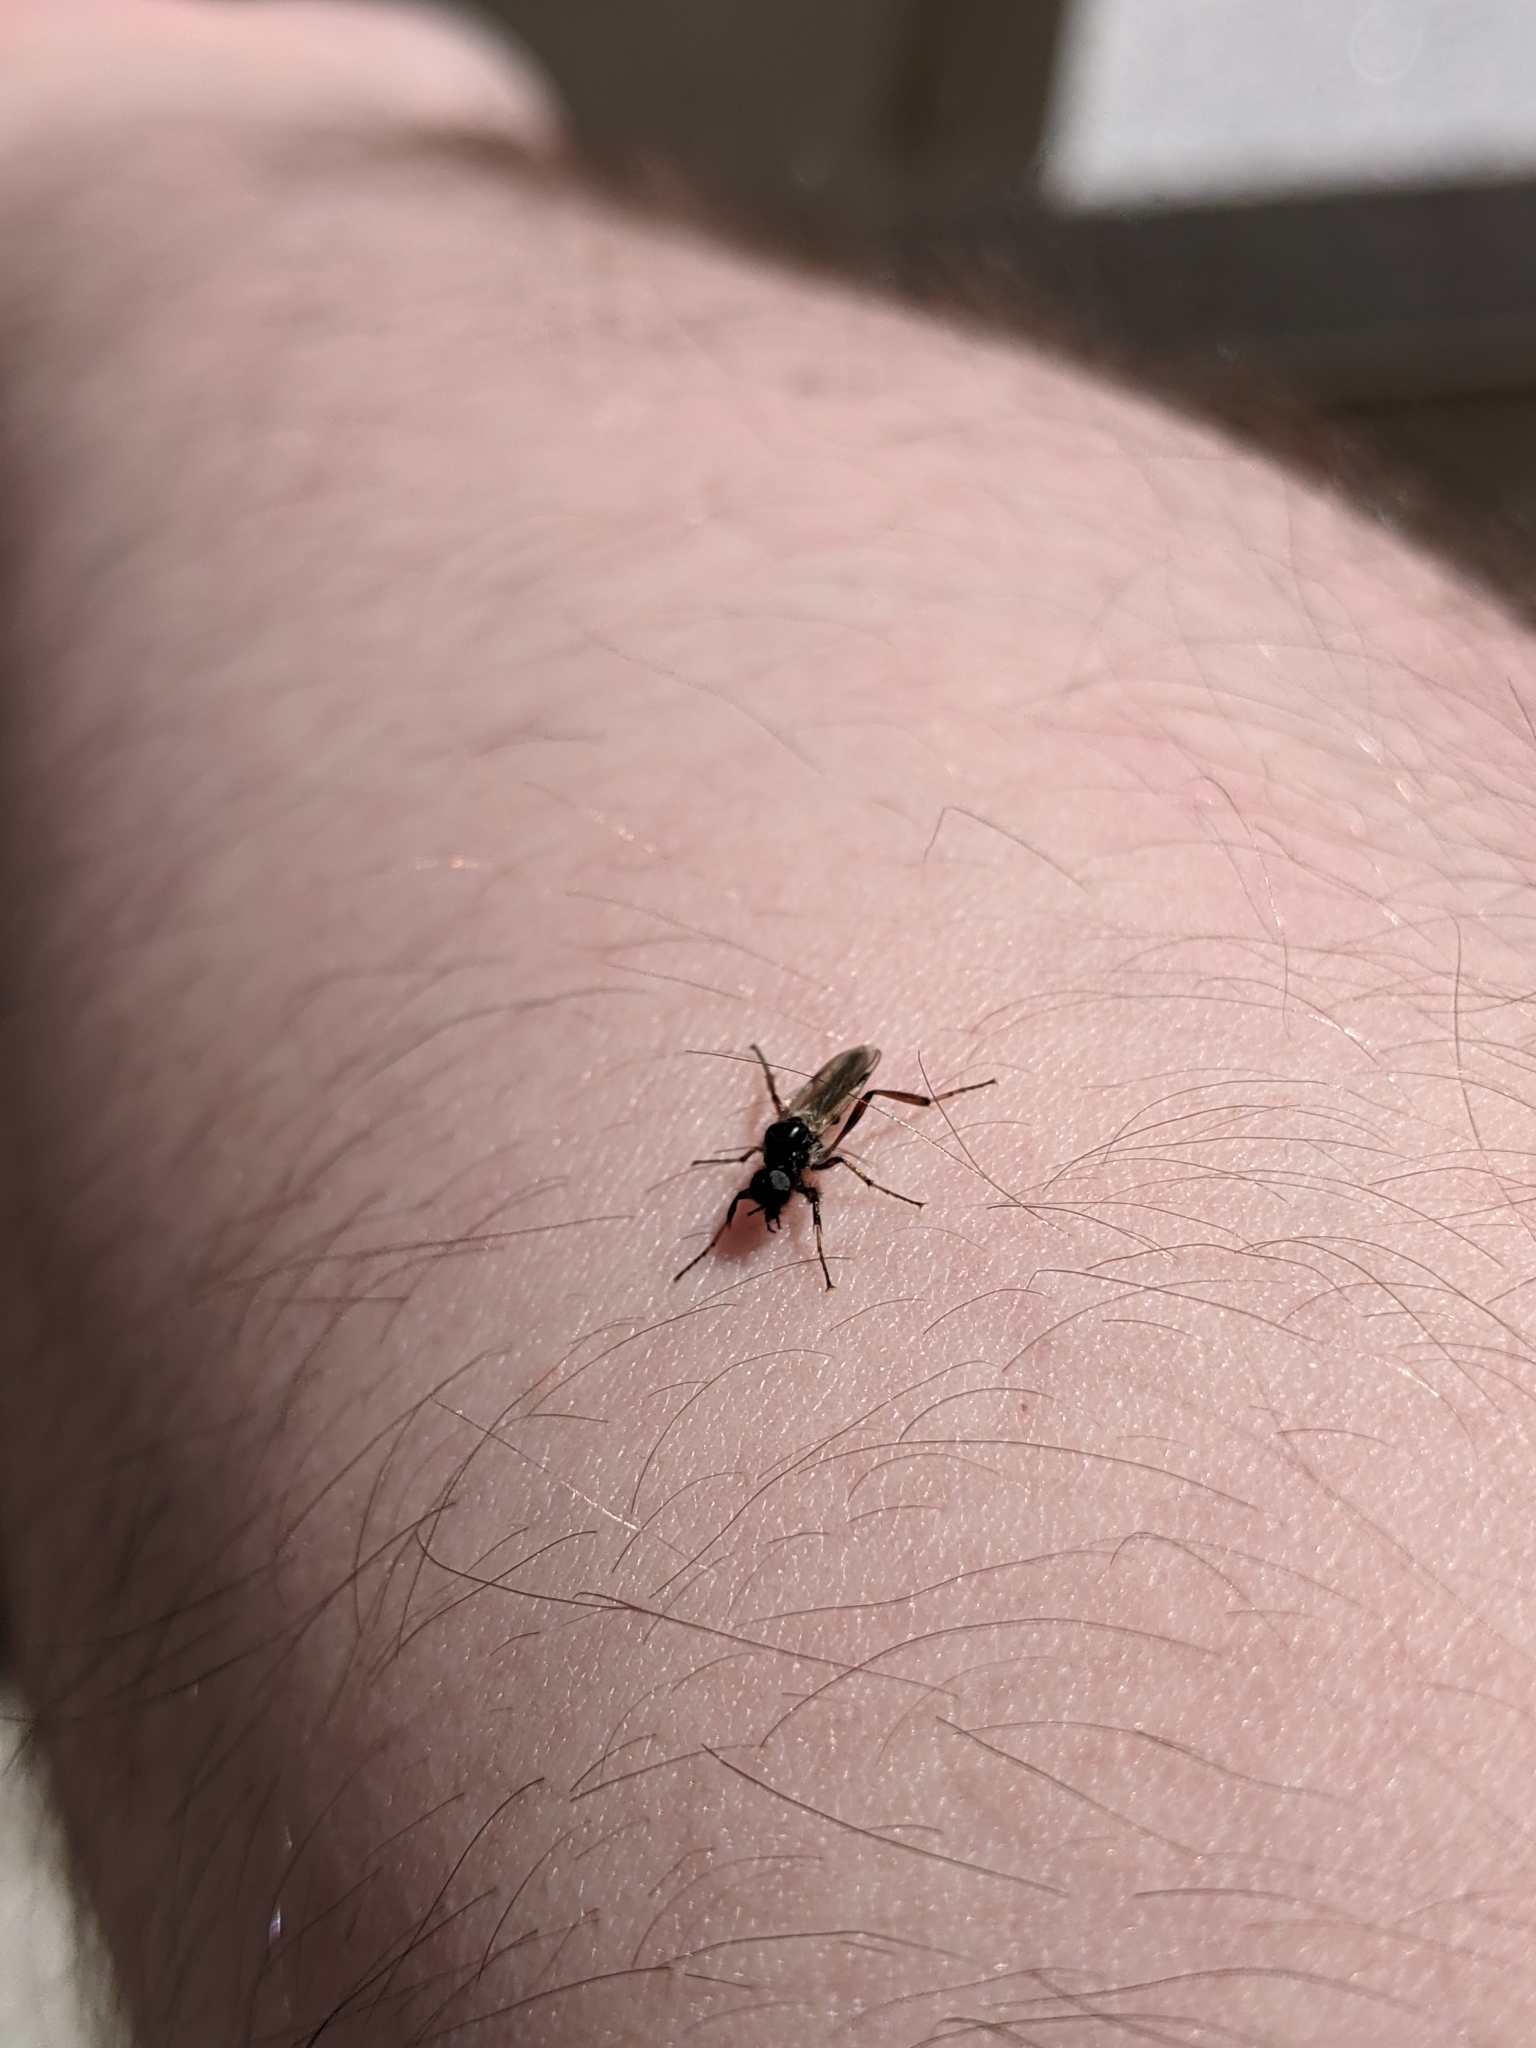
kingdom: Animalia
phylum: Arthropoda
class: Insecta
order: Diptera
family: Bibionidae
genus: Bibio
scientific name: Bibio articulatus
